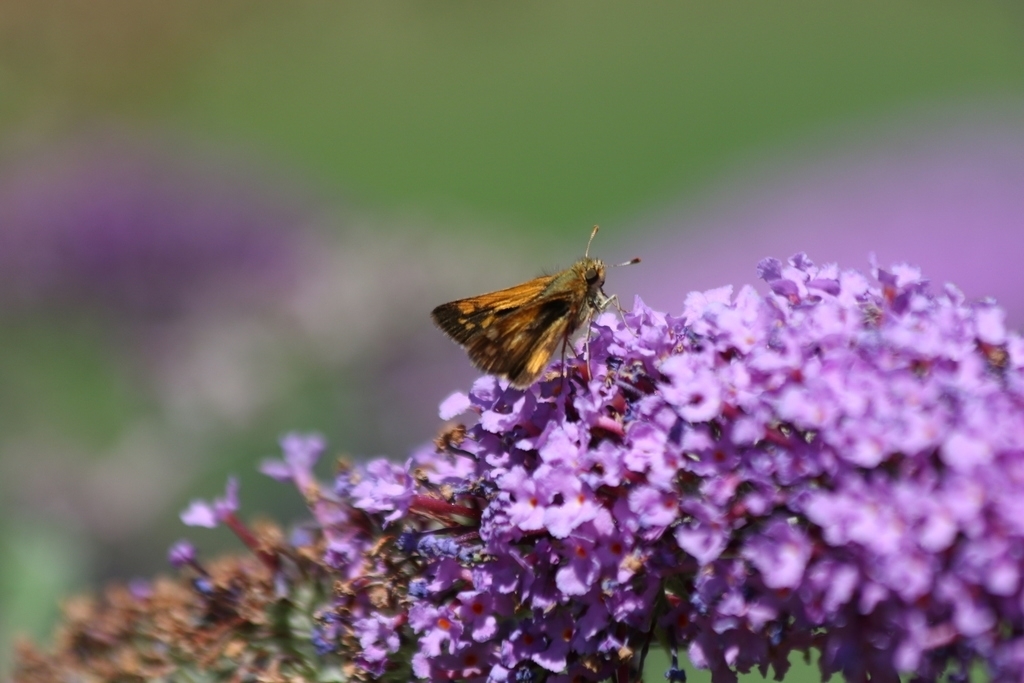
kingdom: Animalia
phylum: Arthropoda
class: Insecta
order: Lepidoptera
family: Hesperiidae
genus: Polites
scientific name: Polites coras
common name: Peck's skipper
